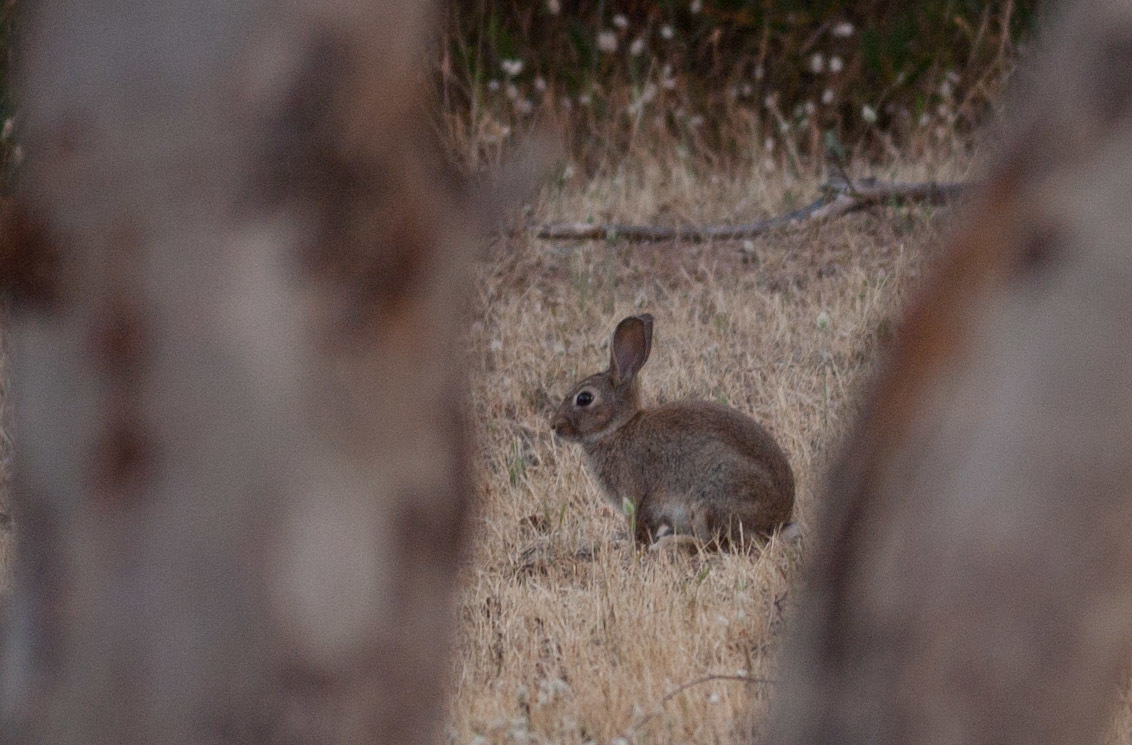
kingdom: Animalia
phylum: Chordata
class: Mammalia
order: Lagomorpha
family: Leporidae
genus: Oryctolagus
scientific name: Oryctolagus cuniculus
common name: European rabbit
